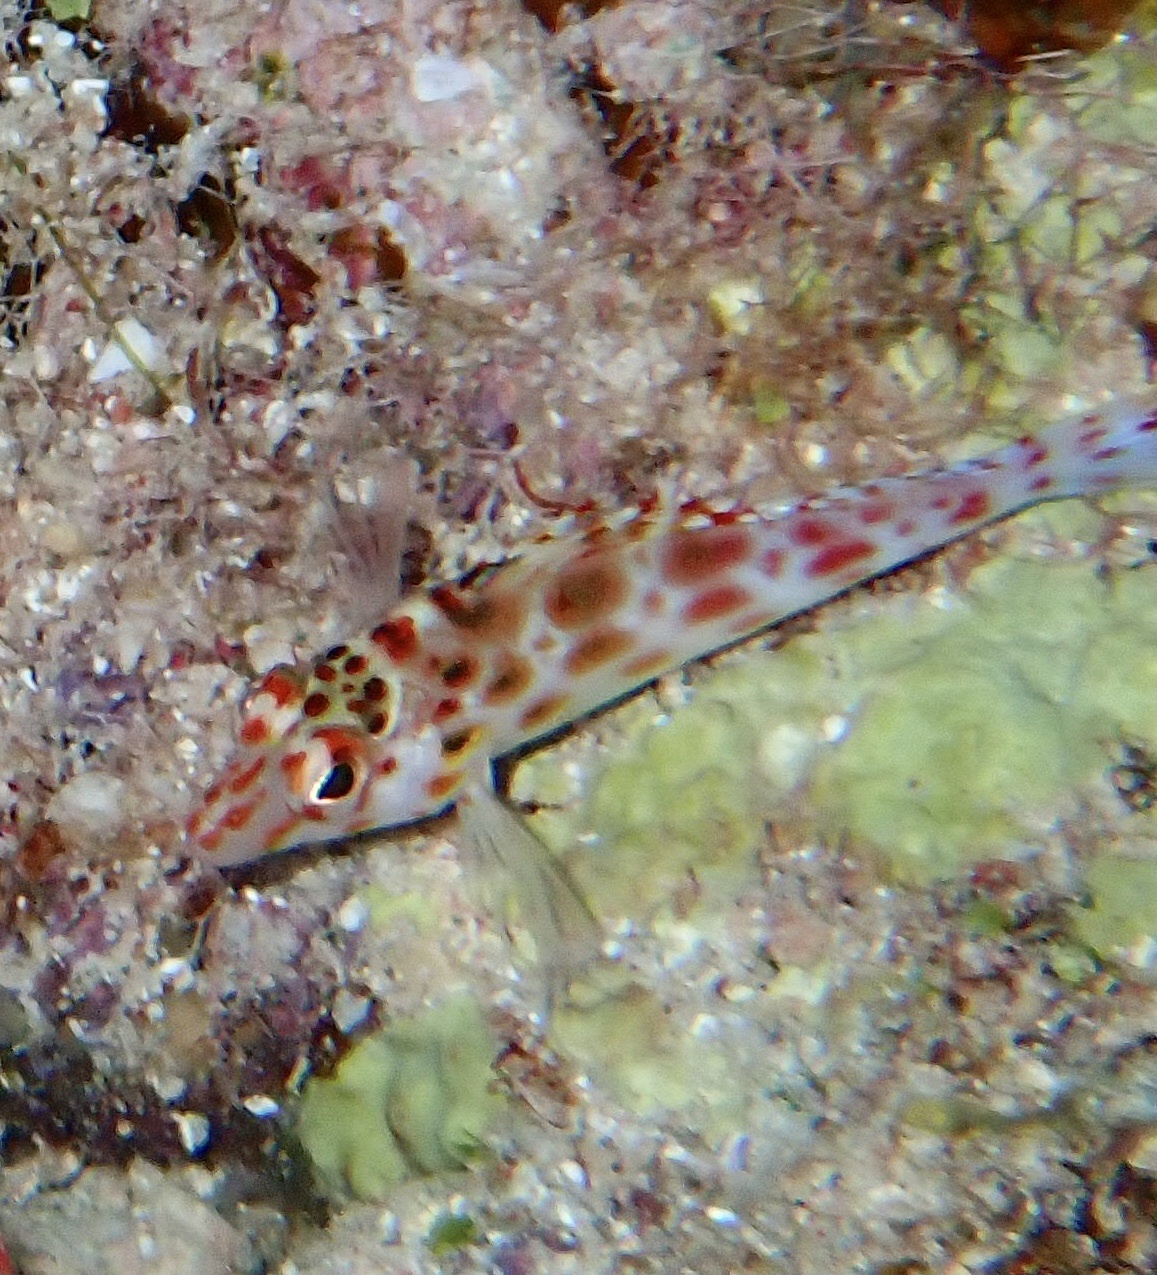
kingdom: Animalia
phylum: Chordata
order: Perciformes
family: Cirrhitidae
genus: Cirrhitichthys
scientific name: Cirrhitichthys oxycephalus
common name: Spotted hawkfish
